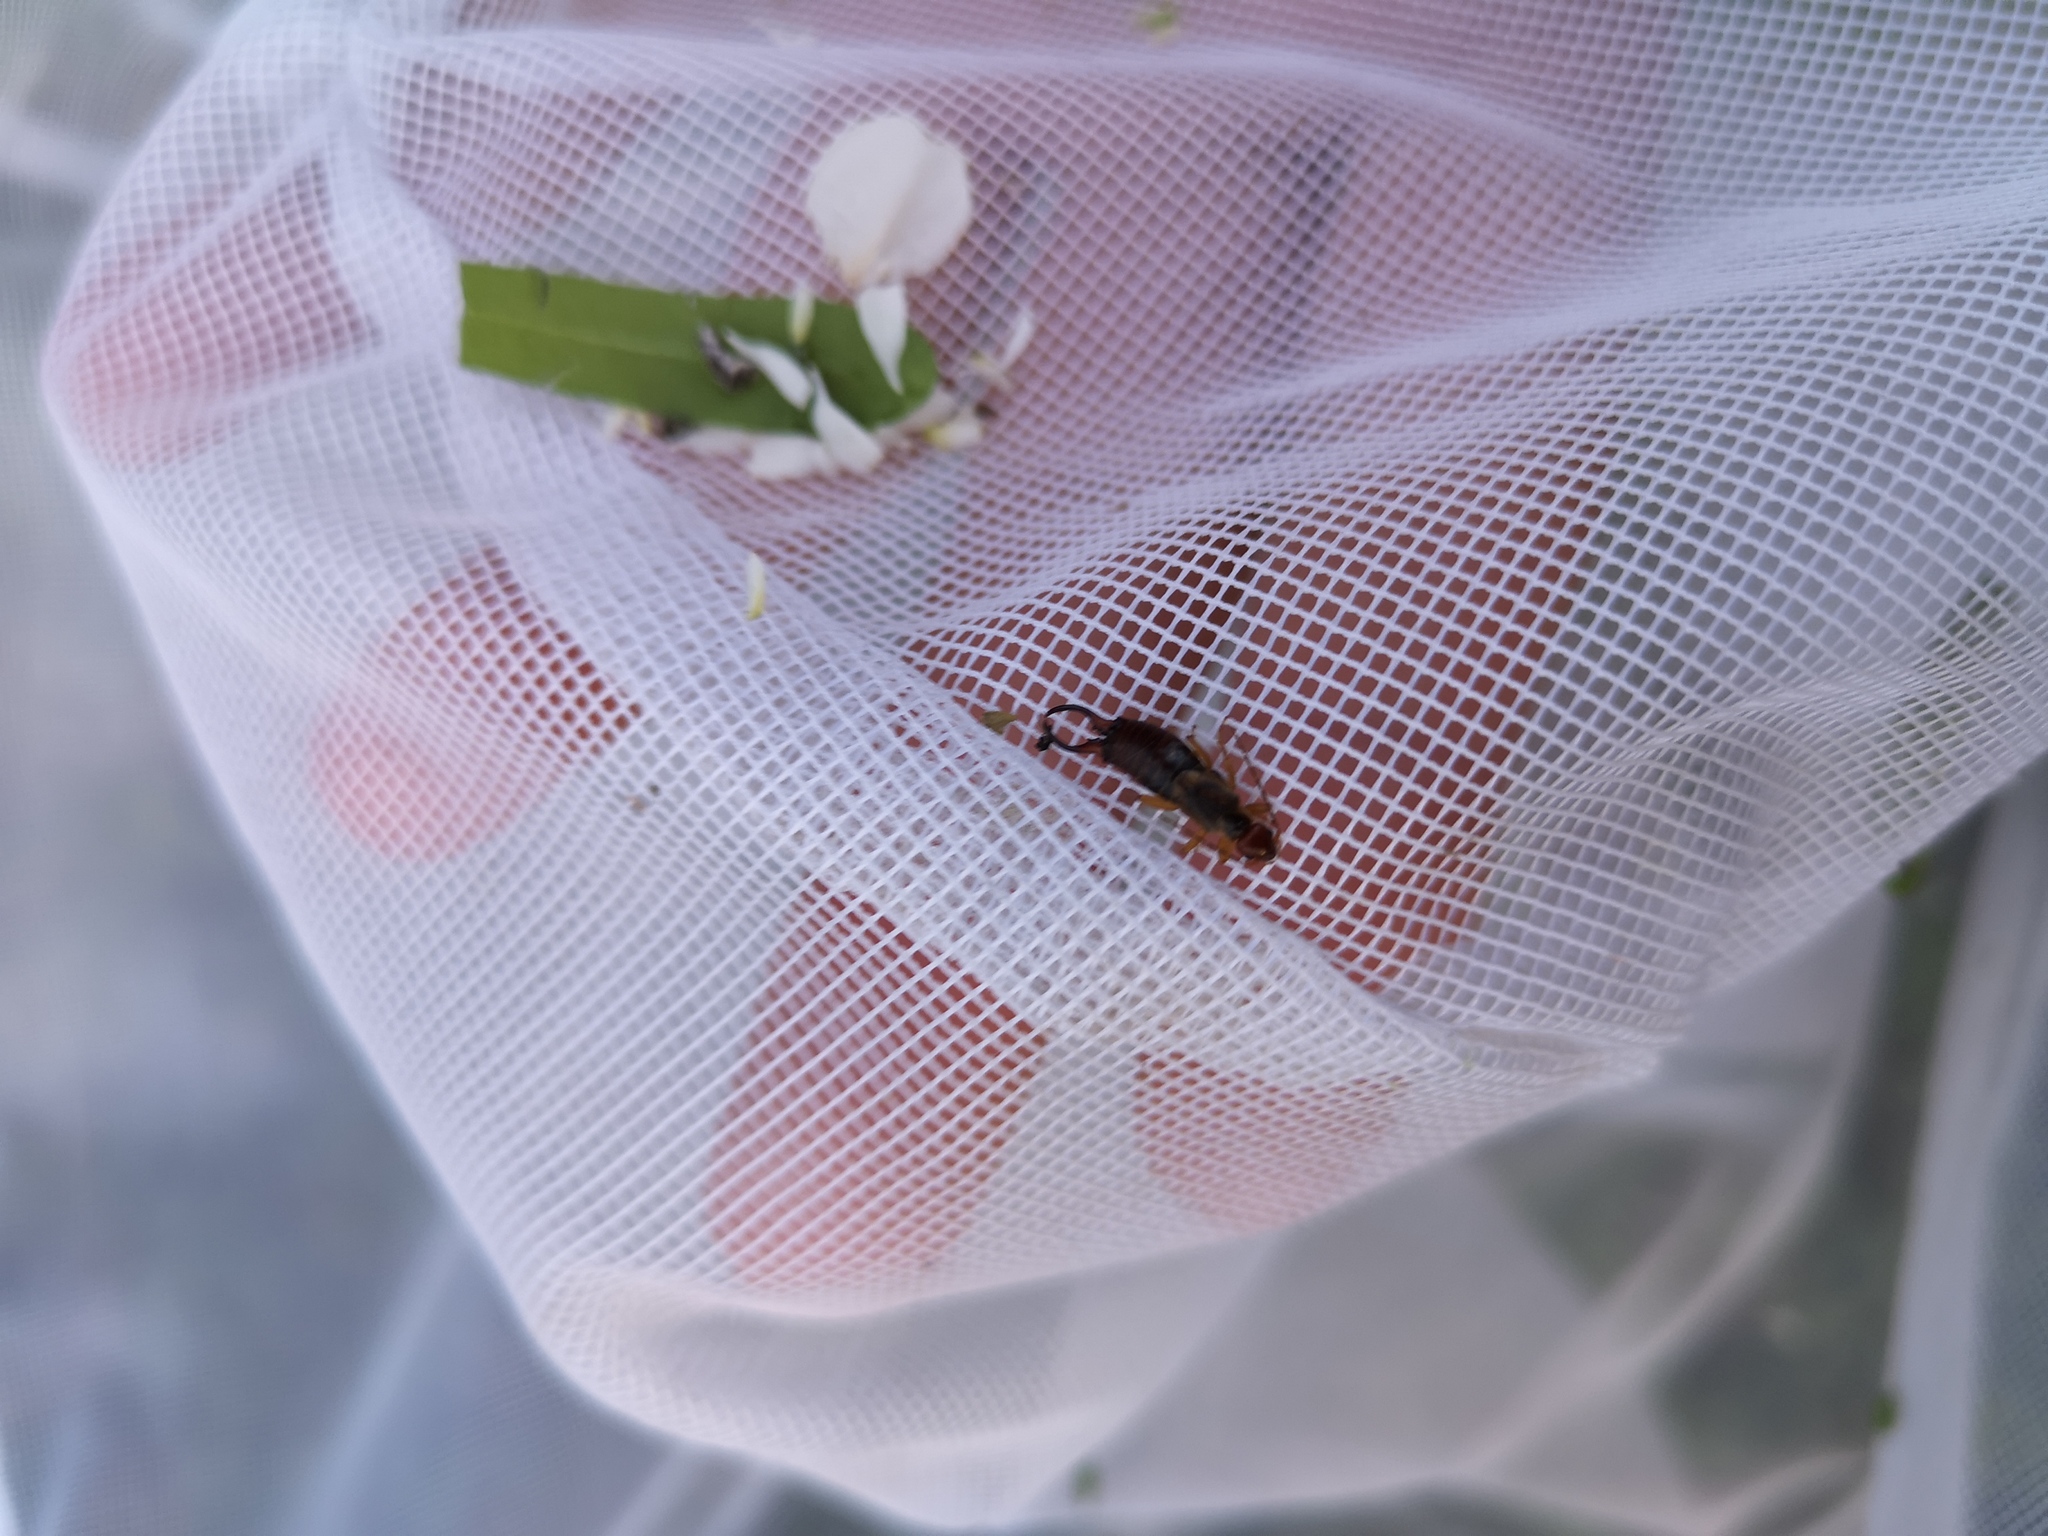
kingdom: Animalia
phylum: Arthropoda
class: Insecta
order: Dermaptera
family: Forficulidae
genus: Forficula
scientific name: Forficula
